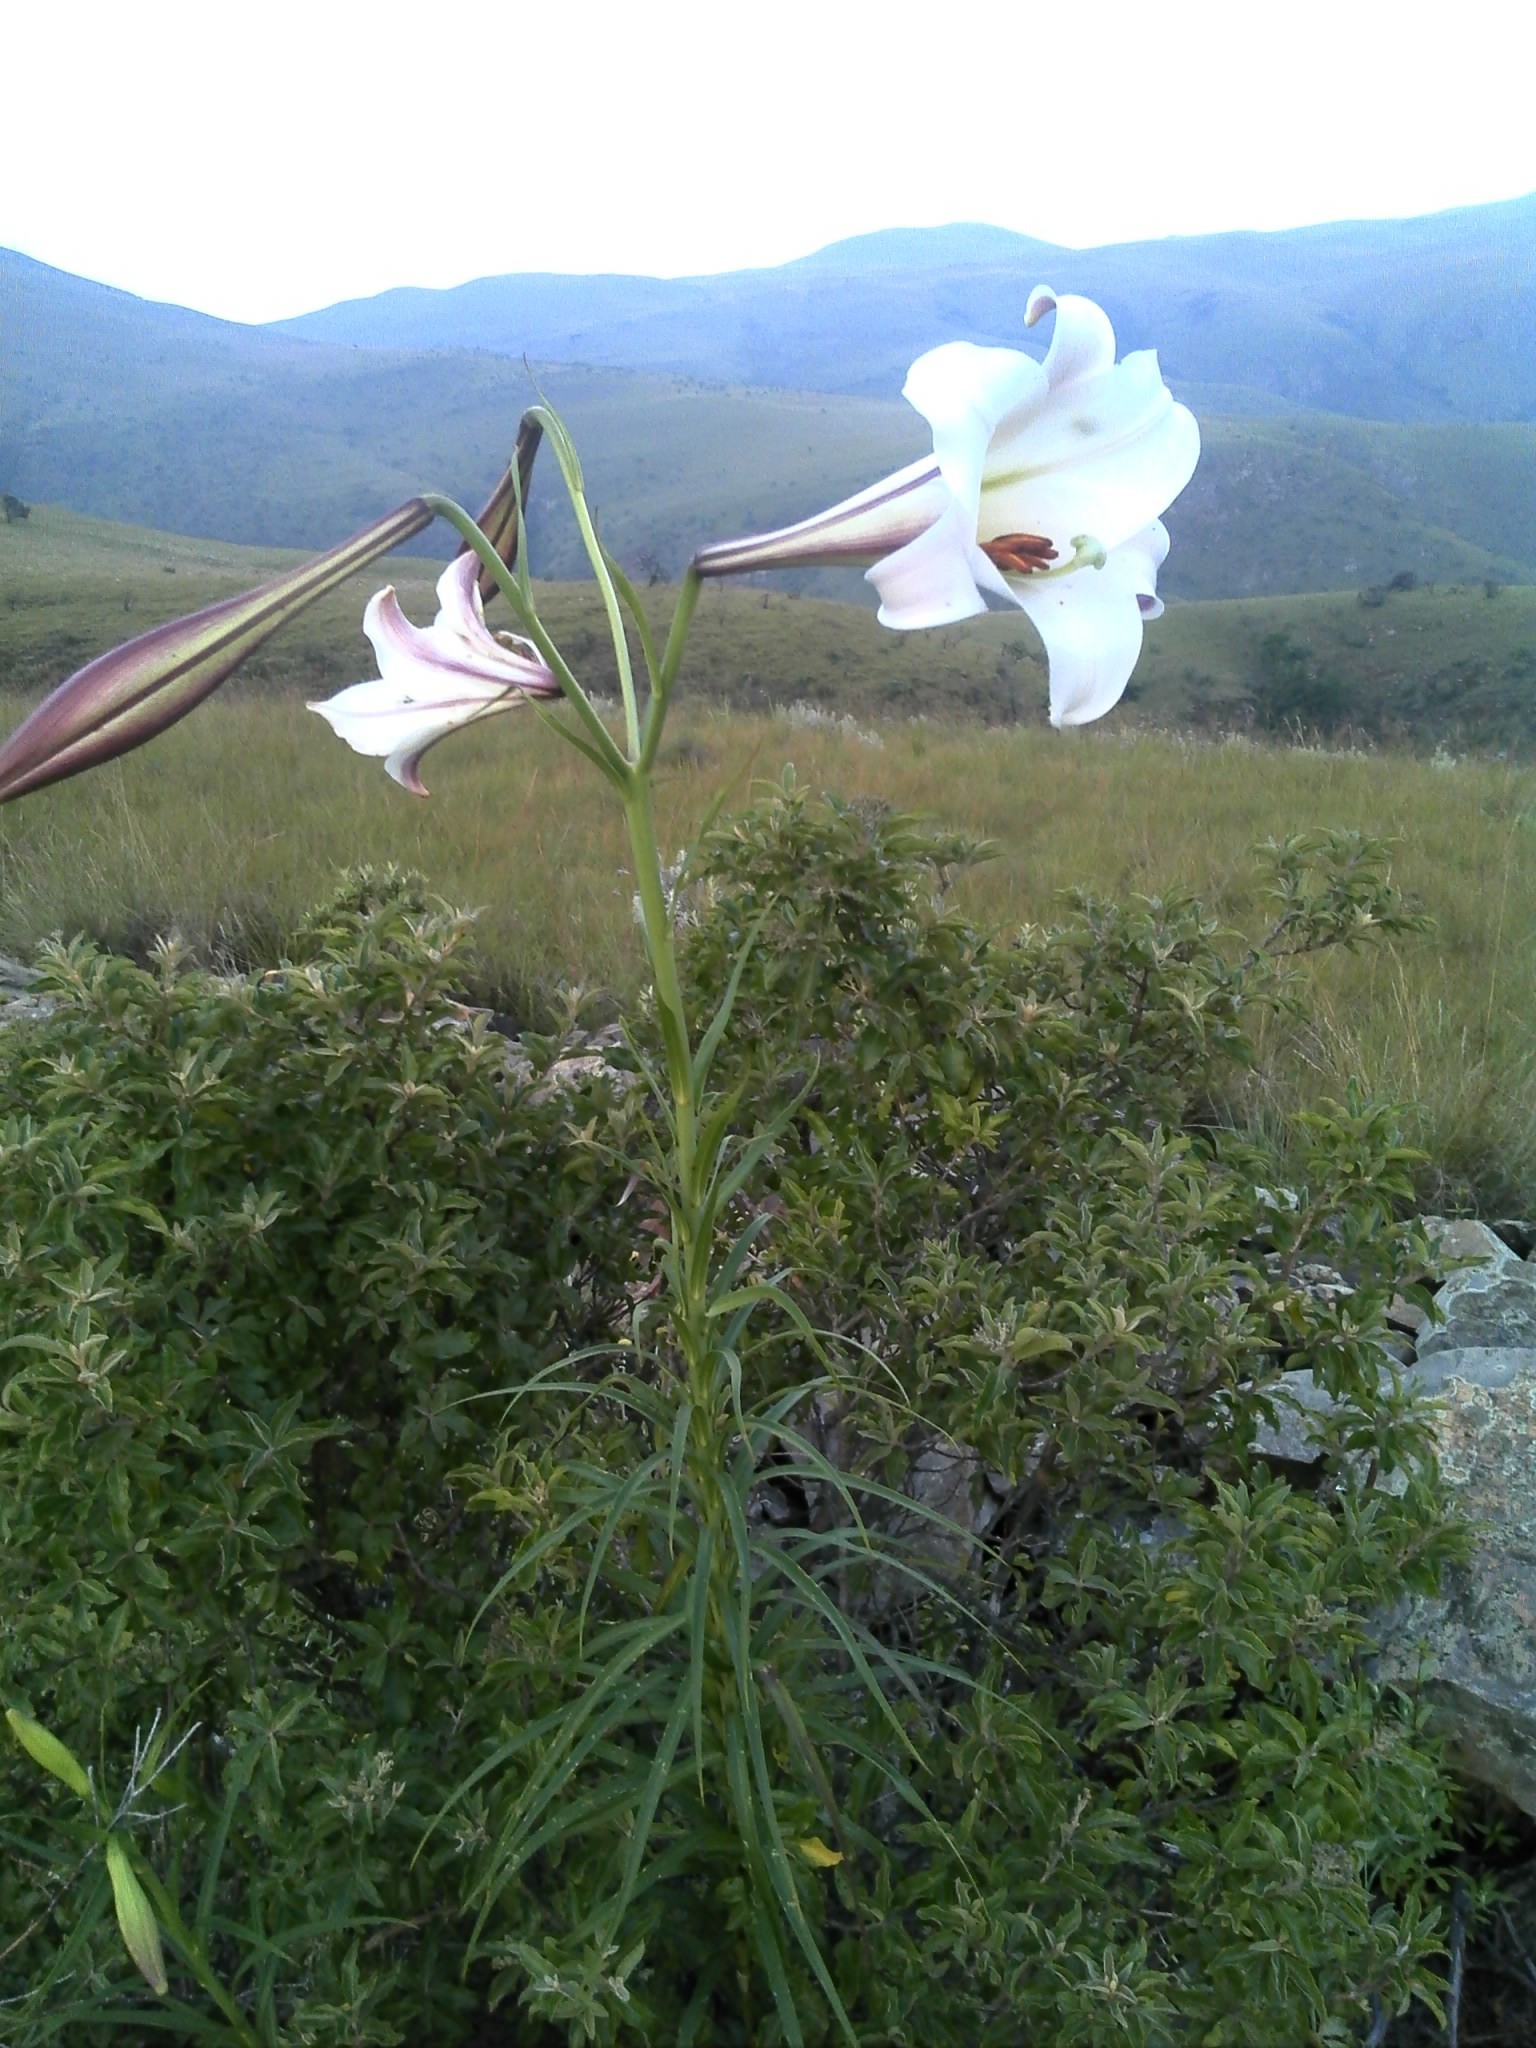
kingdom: Plantae
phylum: Tracheophyta
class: Liliopsida
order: Liliales
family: Liliaceae
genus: Lilium
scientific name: Lilium formosanum
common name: Formosa lily
